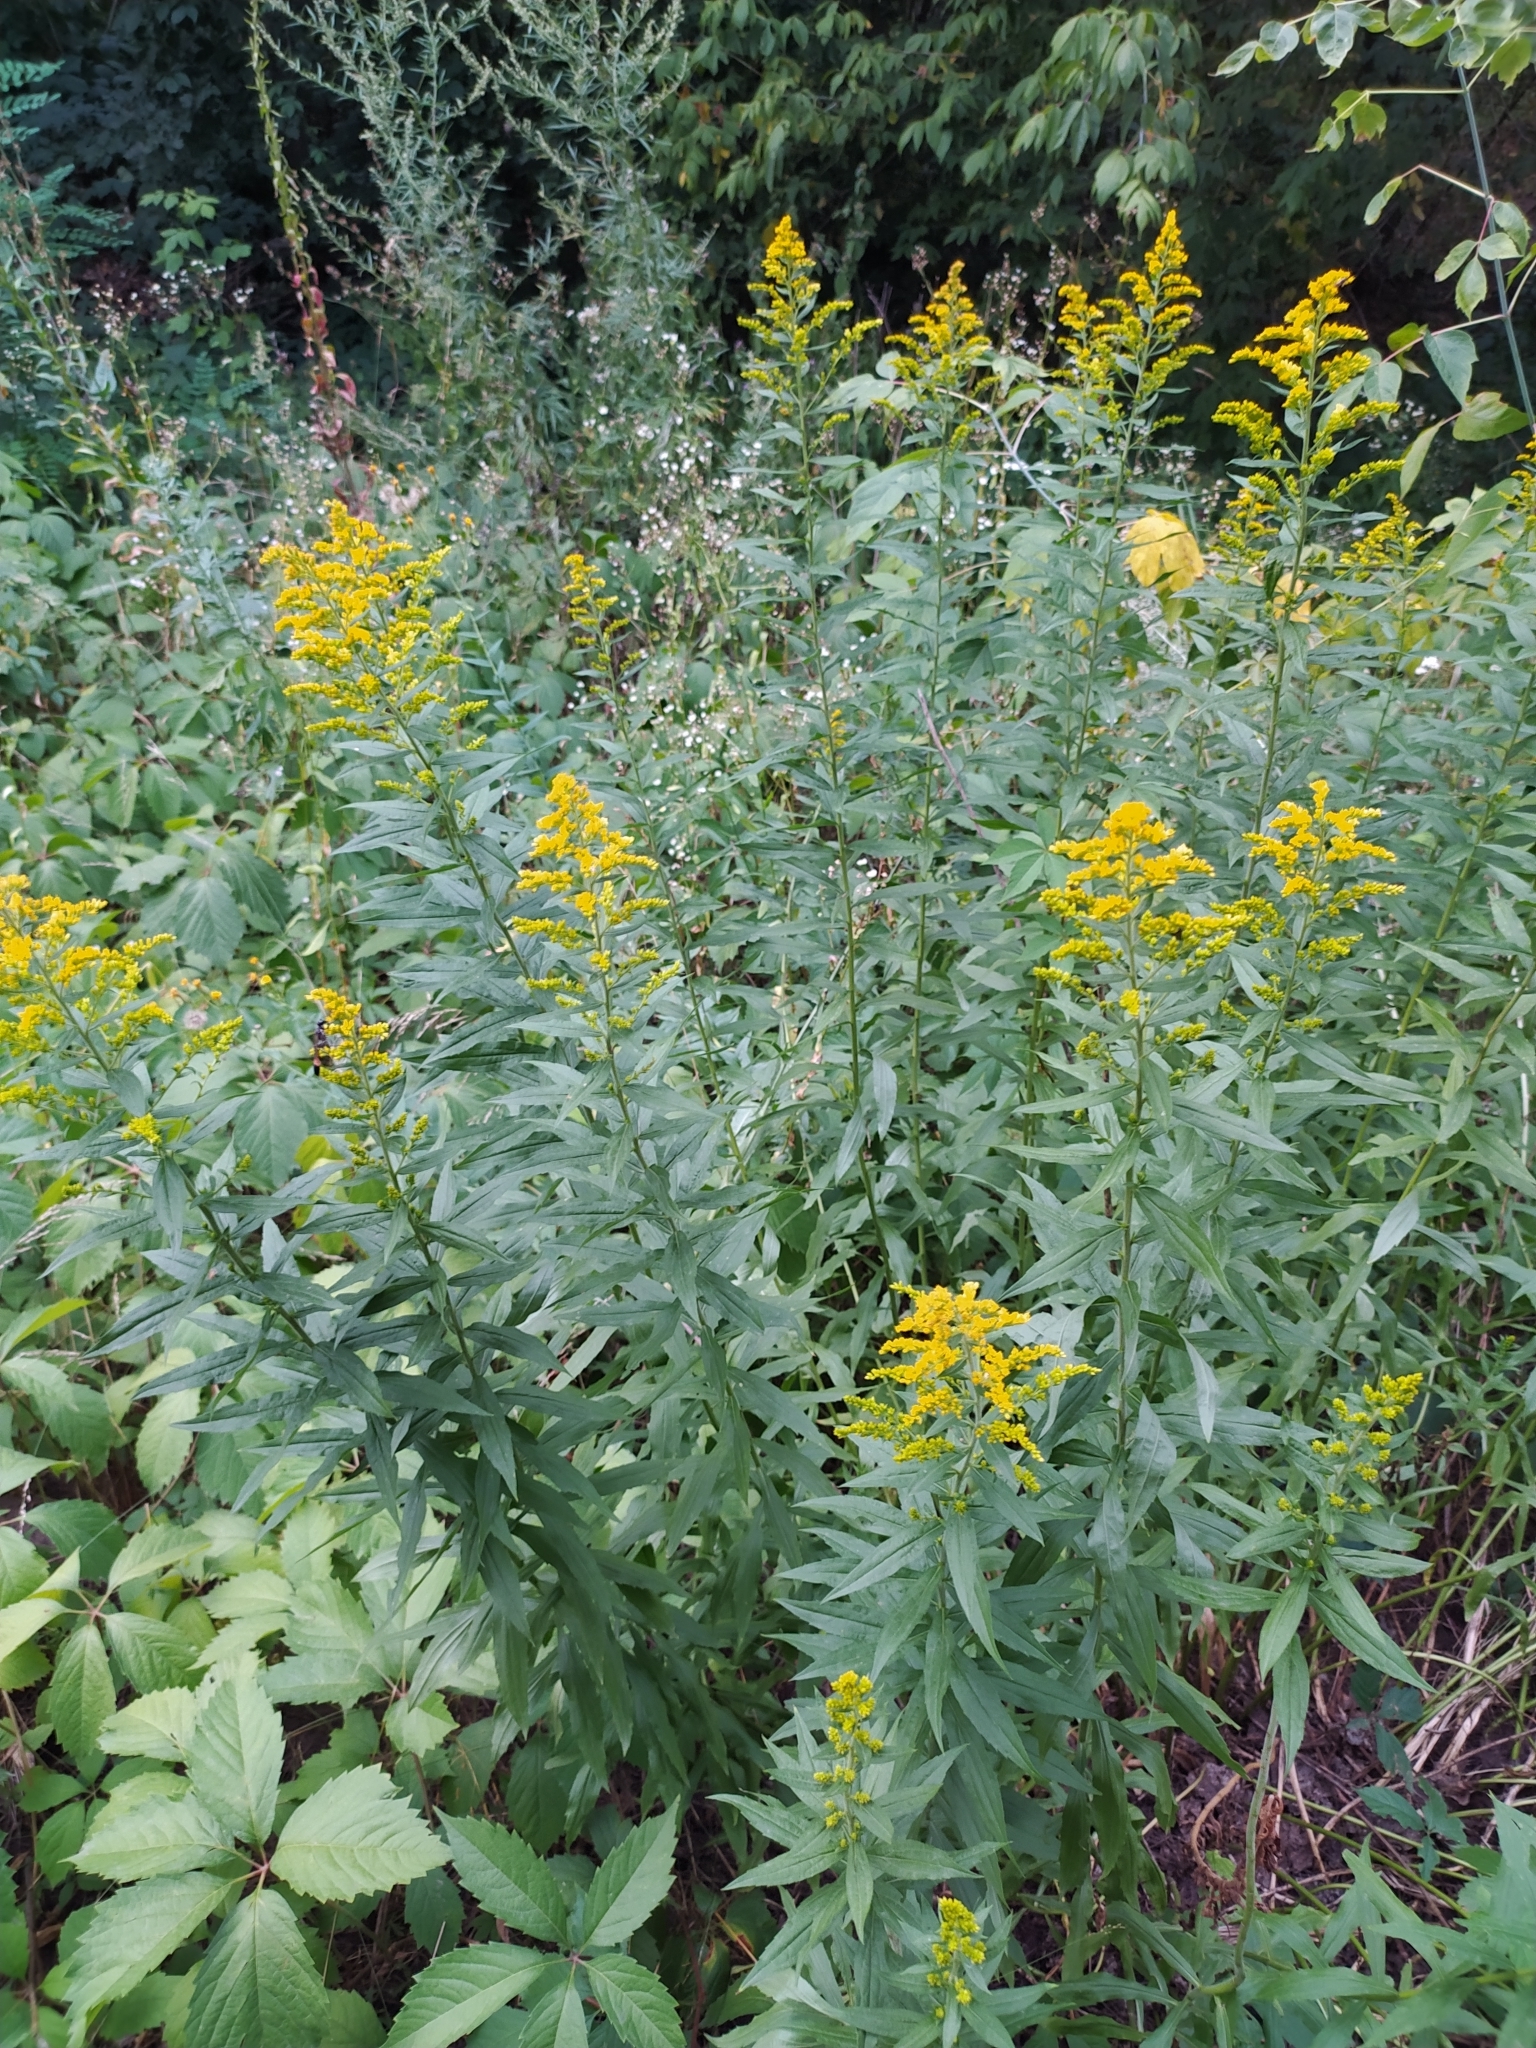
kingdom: Plantae
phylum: Tracheophyta
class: Magnoliopsida
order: Asterales
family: Asteraceae
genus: Solidago
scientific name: Solidago canadensis
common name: Canada goldenrod
